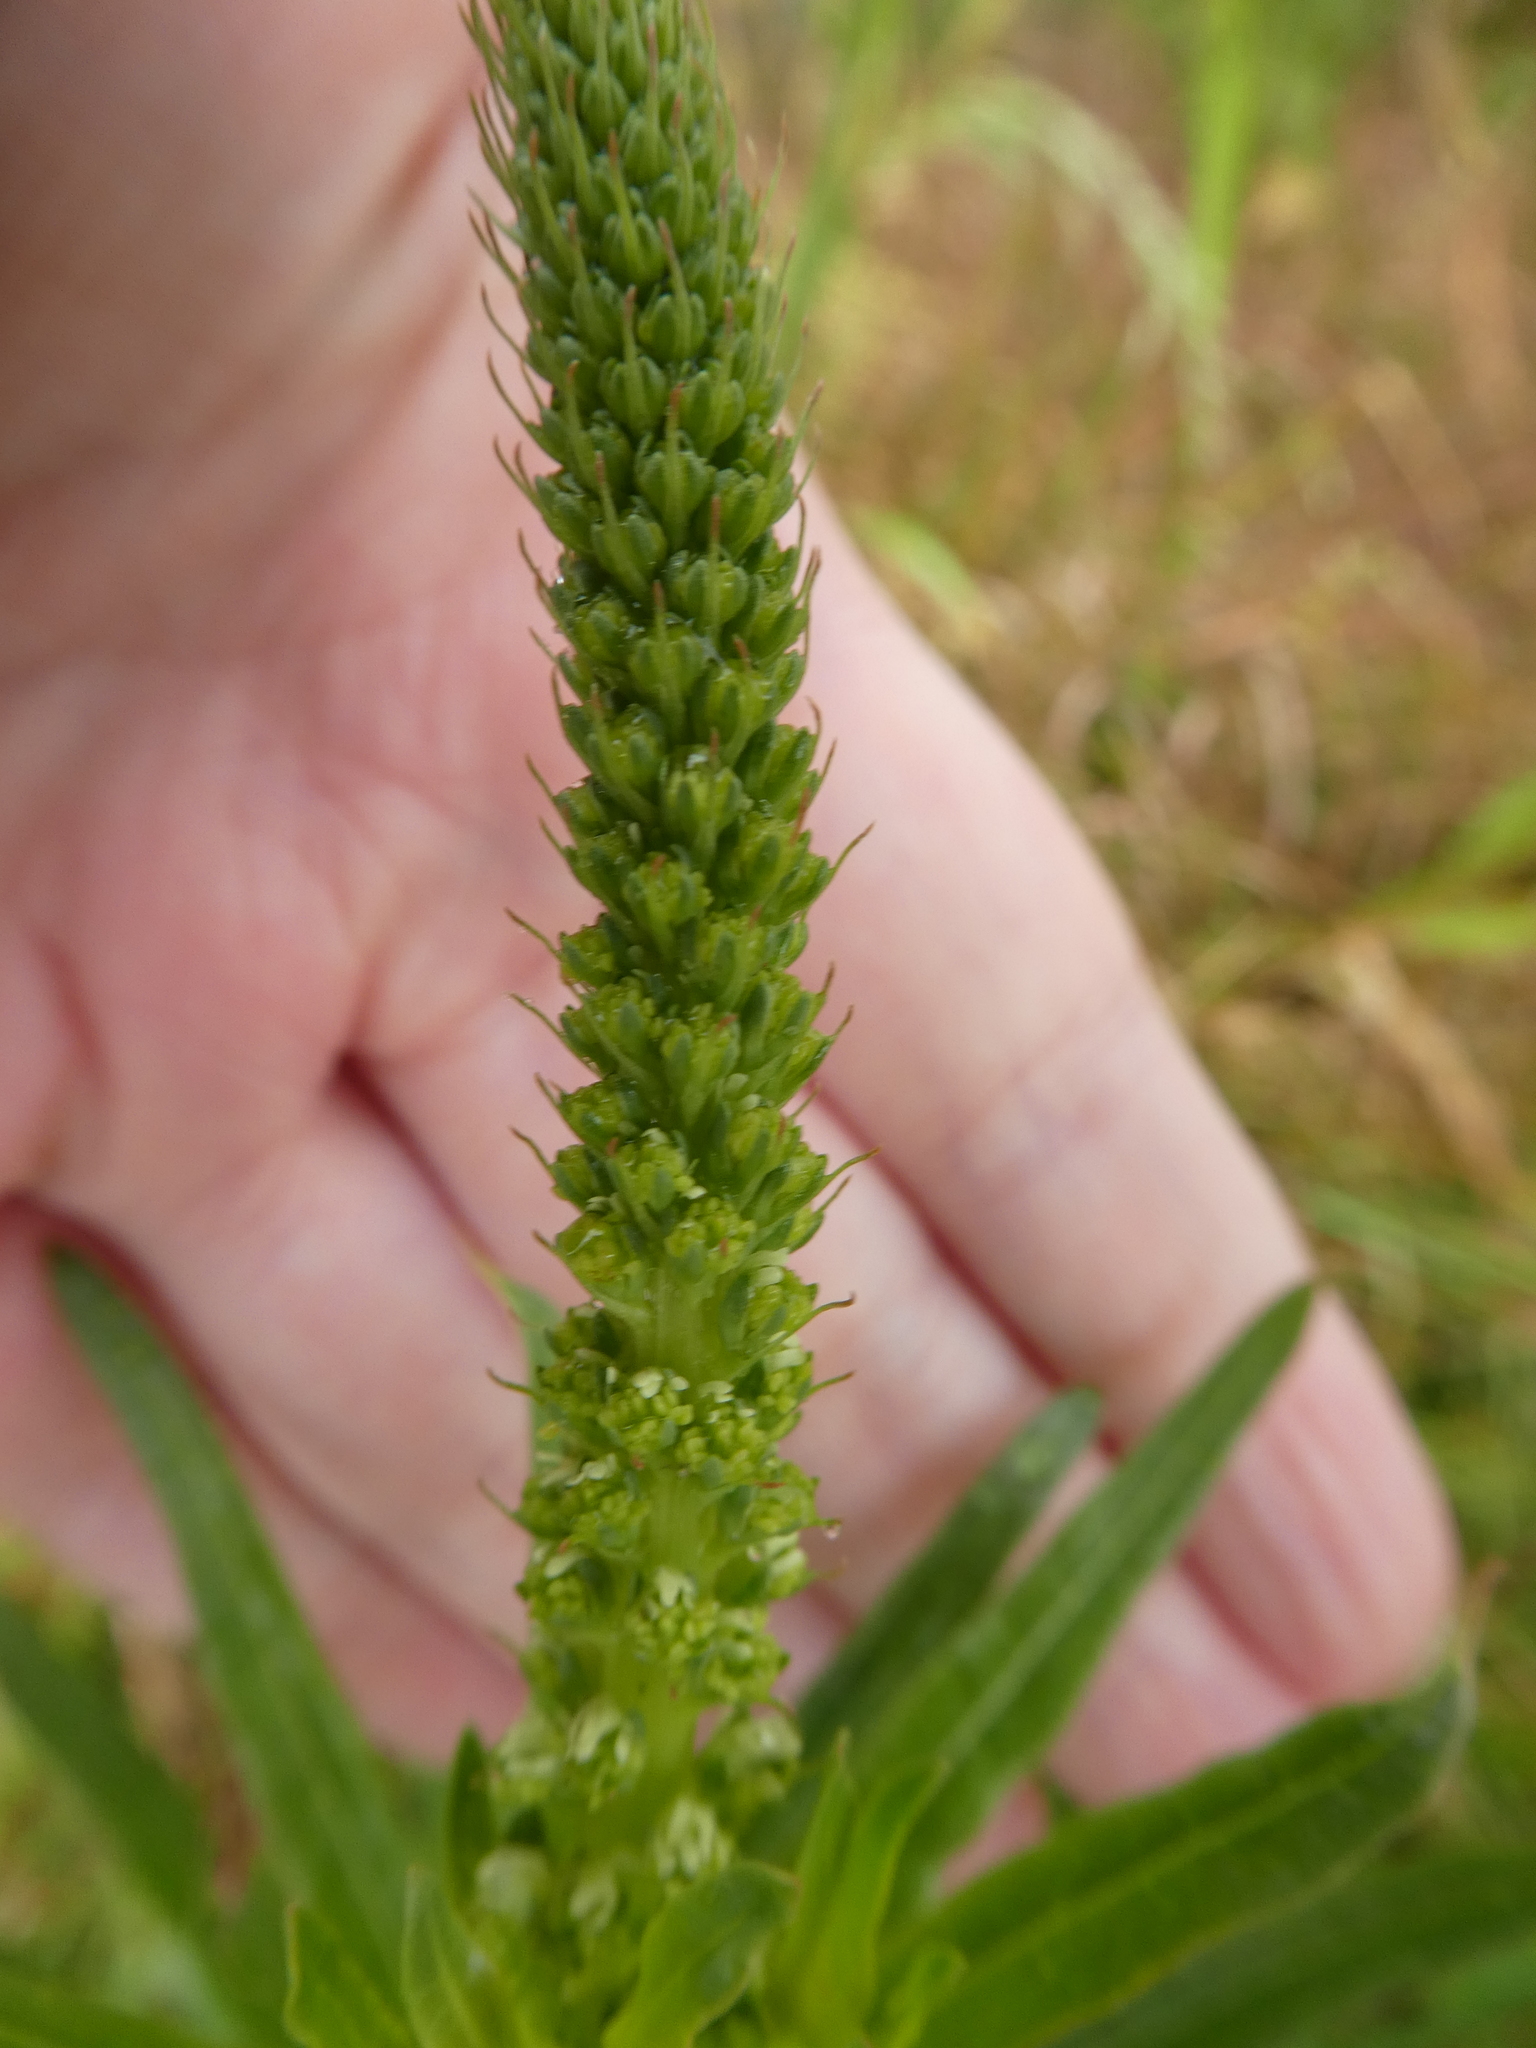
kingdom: Plantae
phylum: Tracheophyta
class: Magnoliopsida
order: Brassicales
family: Resedaceae
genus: Reseda
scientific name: Reseda luteola
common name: Weld
